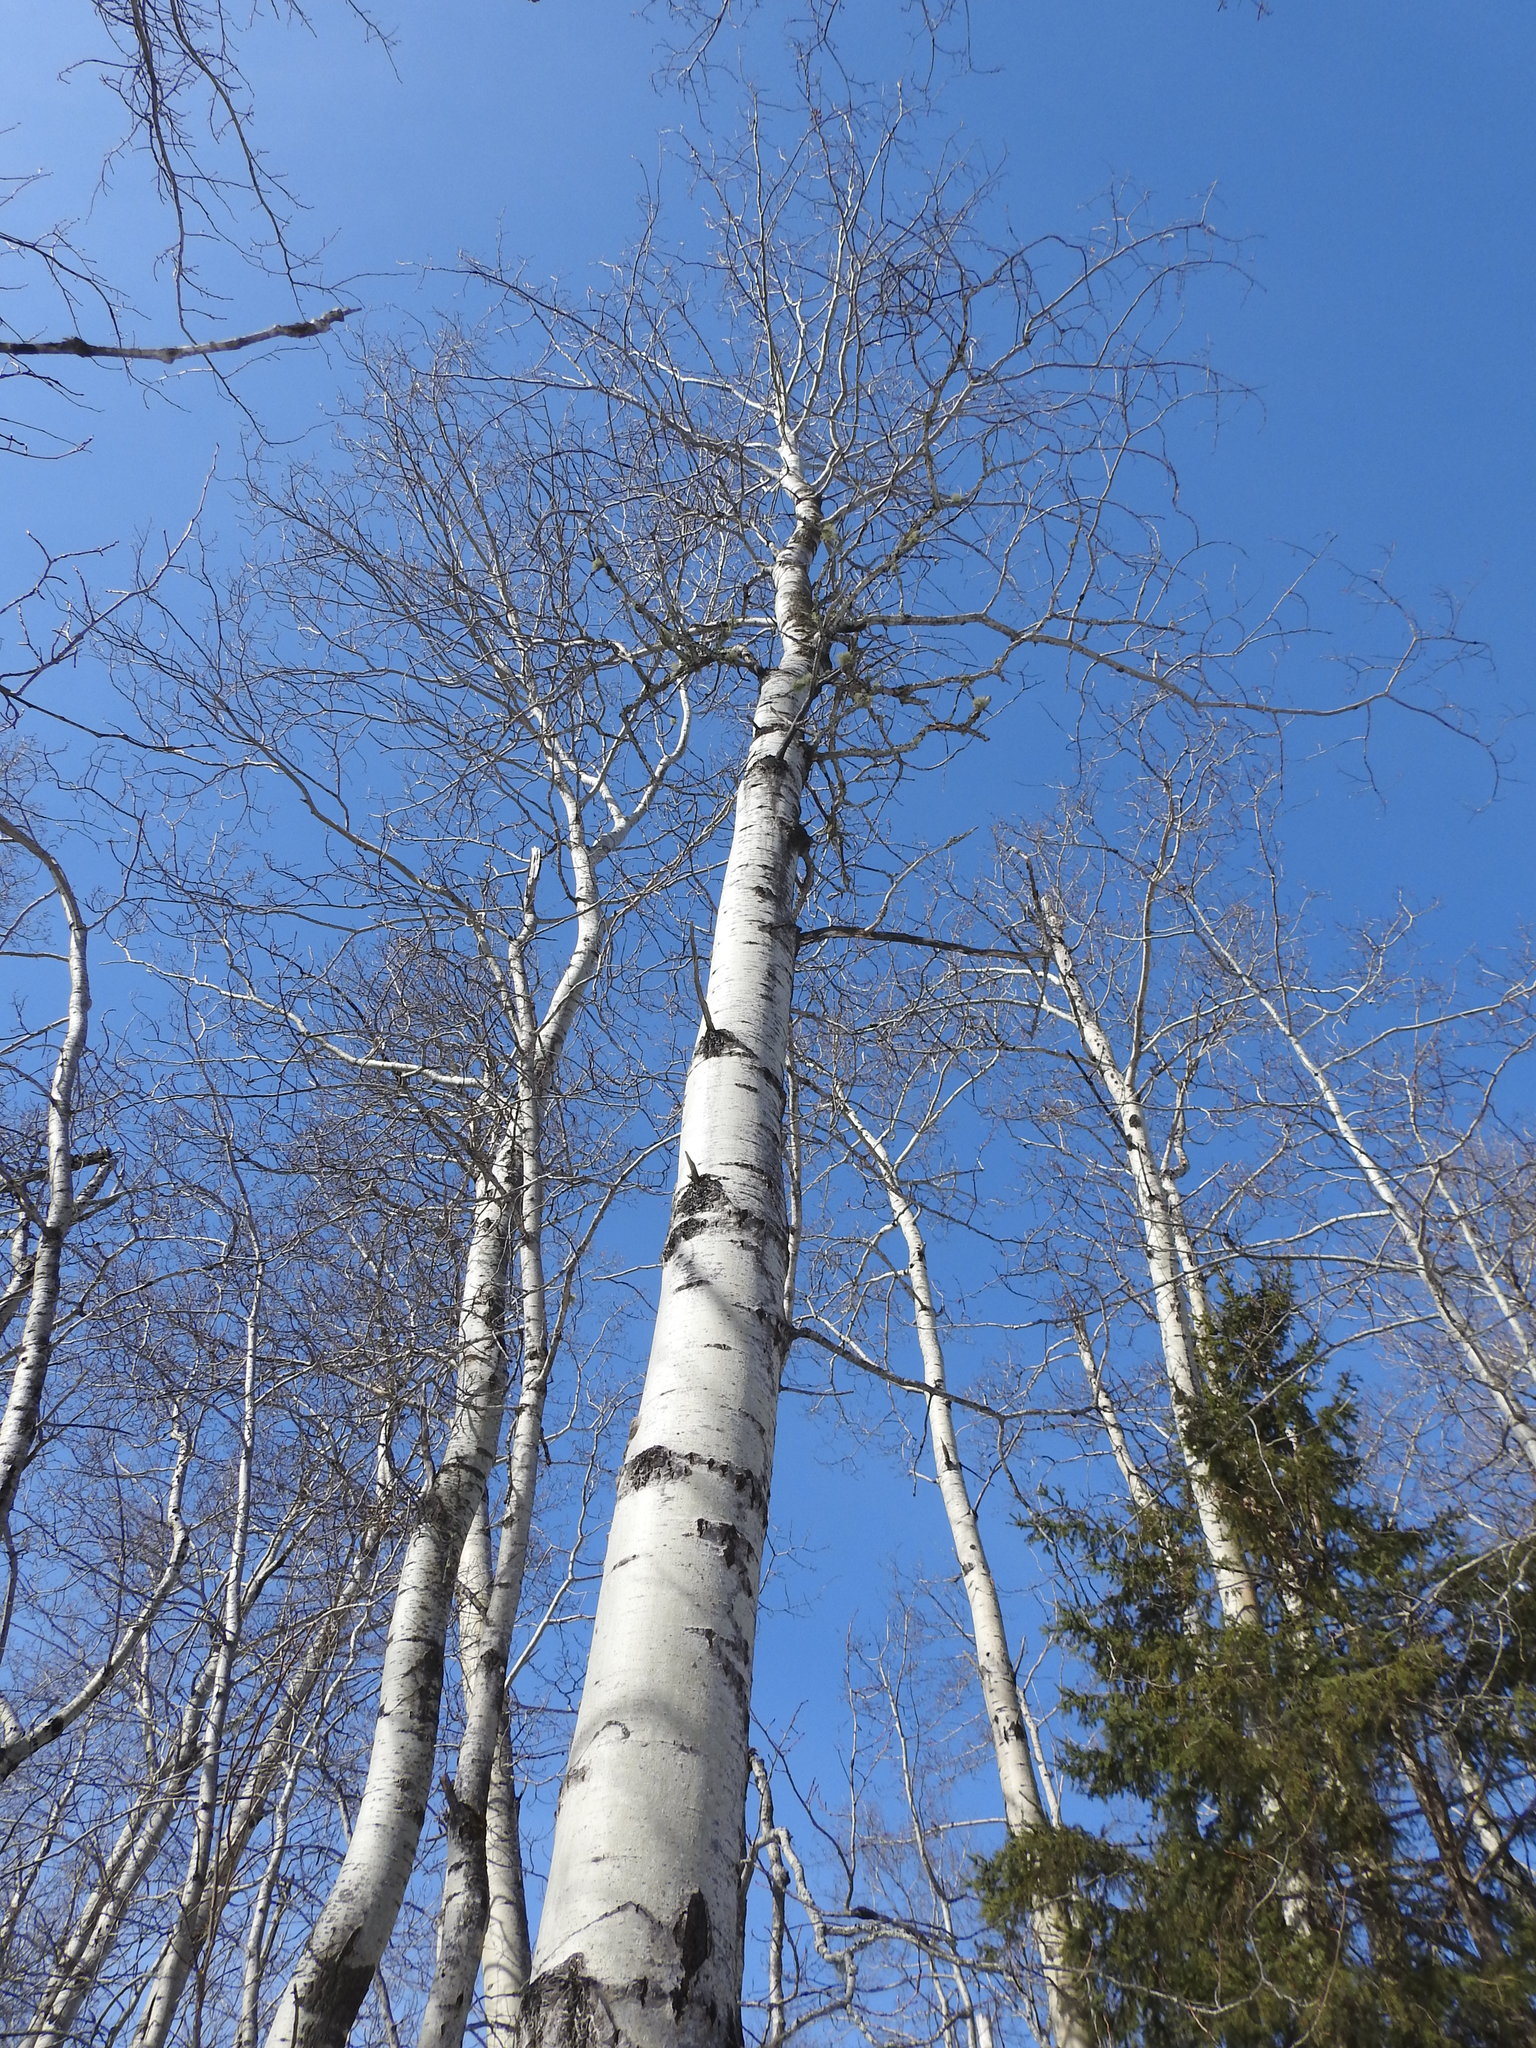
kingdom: Plantae
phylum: Tracheophyta
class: Magnoliopsida
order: Malpighiales
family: Salicaceae
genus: Populus
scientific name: Populus tremuloides
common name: Quaking aspen
